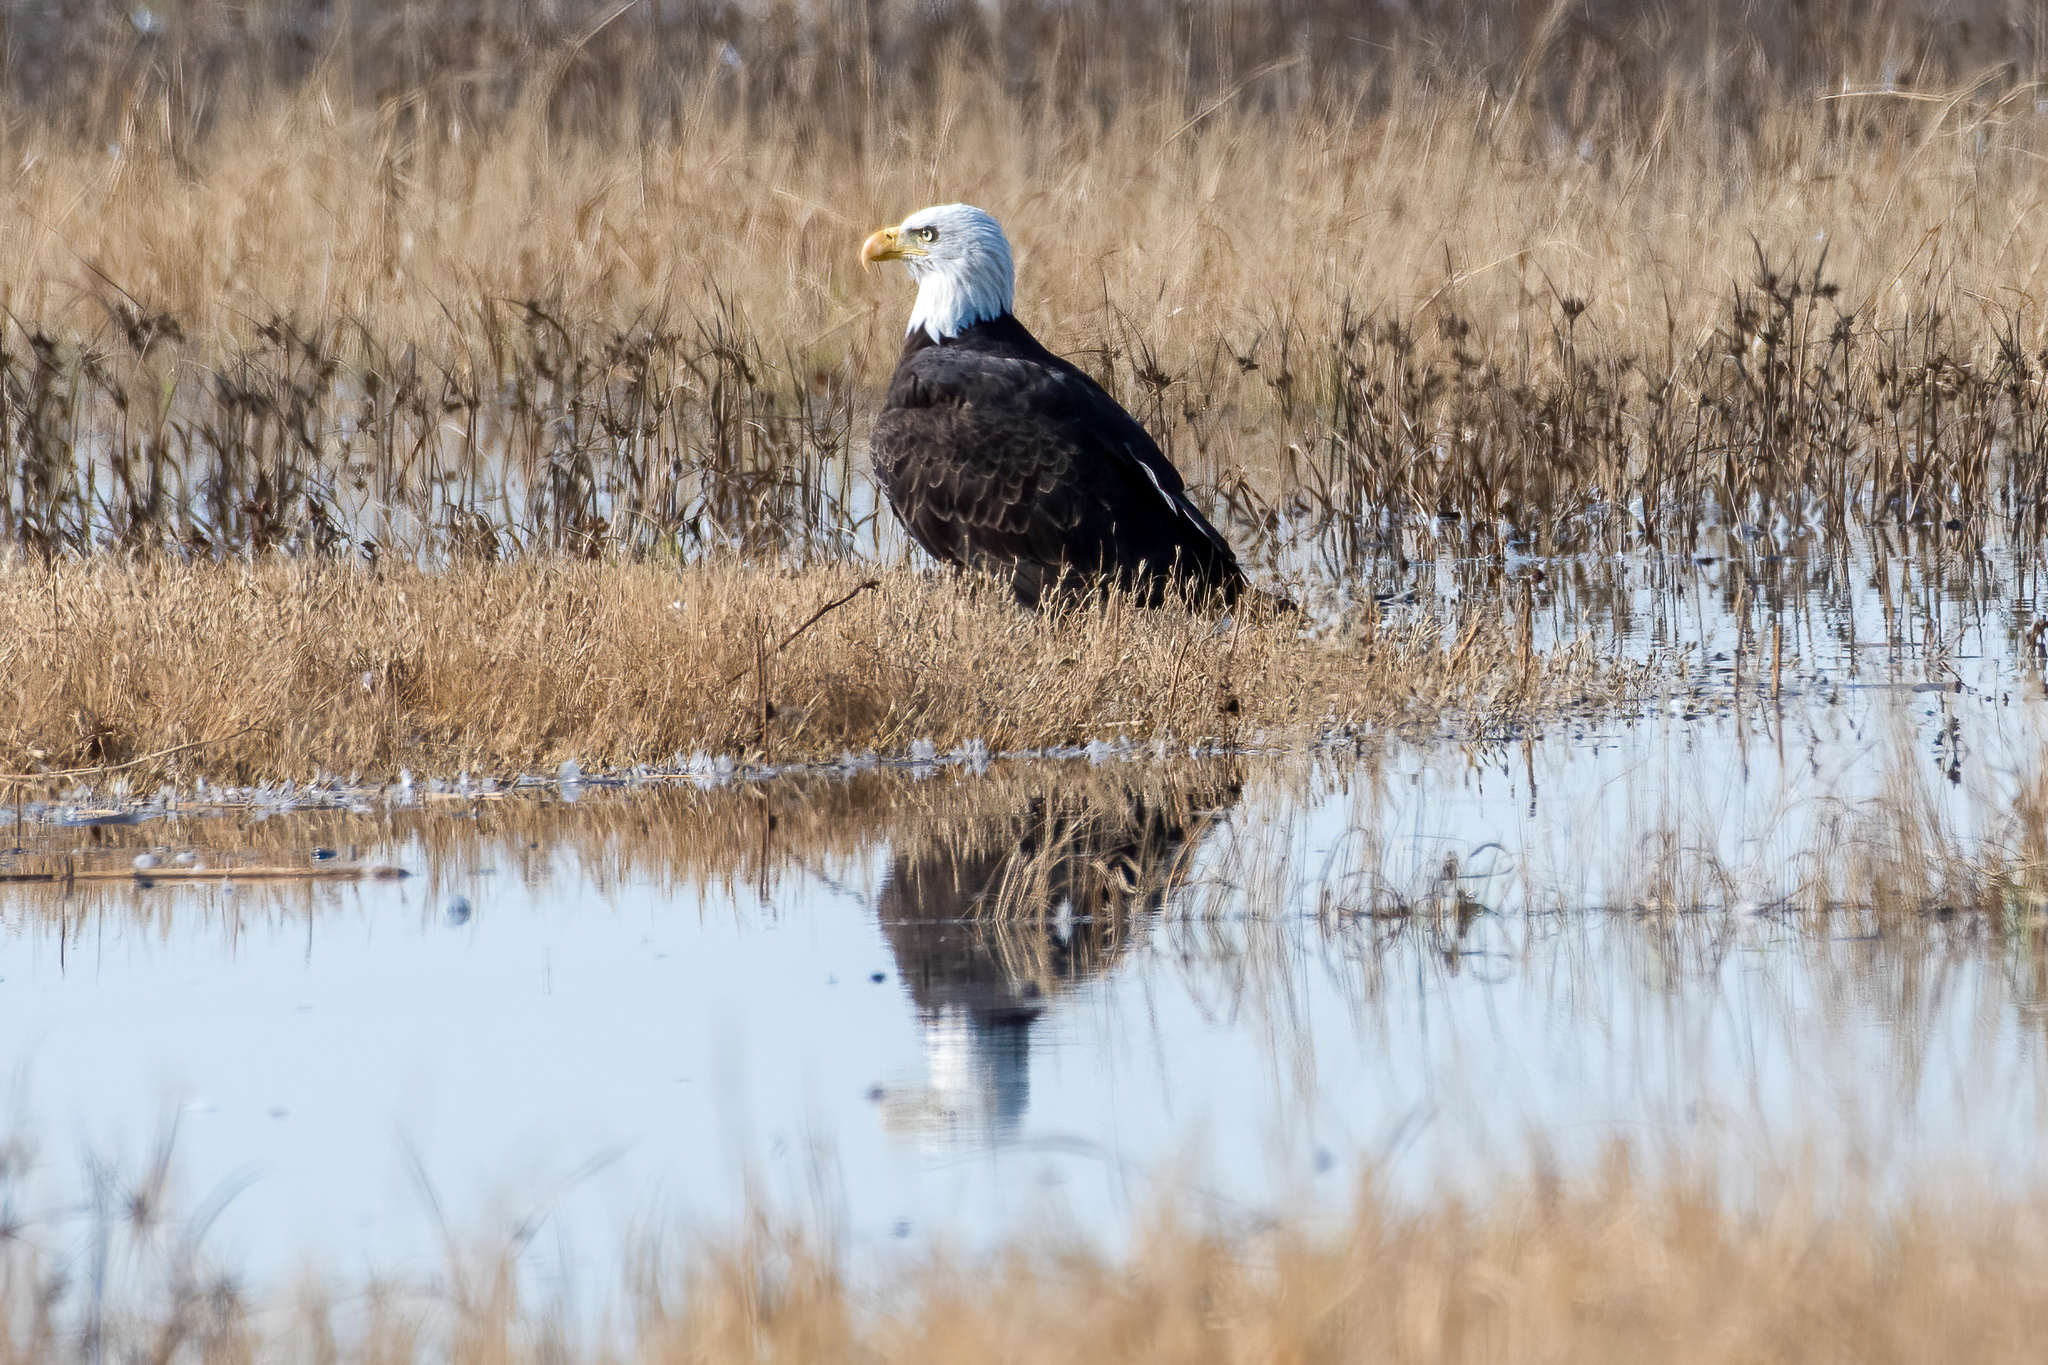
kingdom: Animalia
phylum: Chordata
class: Aves
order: Accipitriformes
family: Accipitridae
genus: Haliaeetus
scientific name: Haliaeetus leucocephalus
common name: Bald eagle
